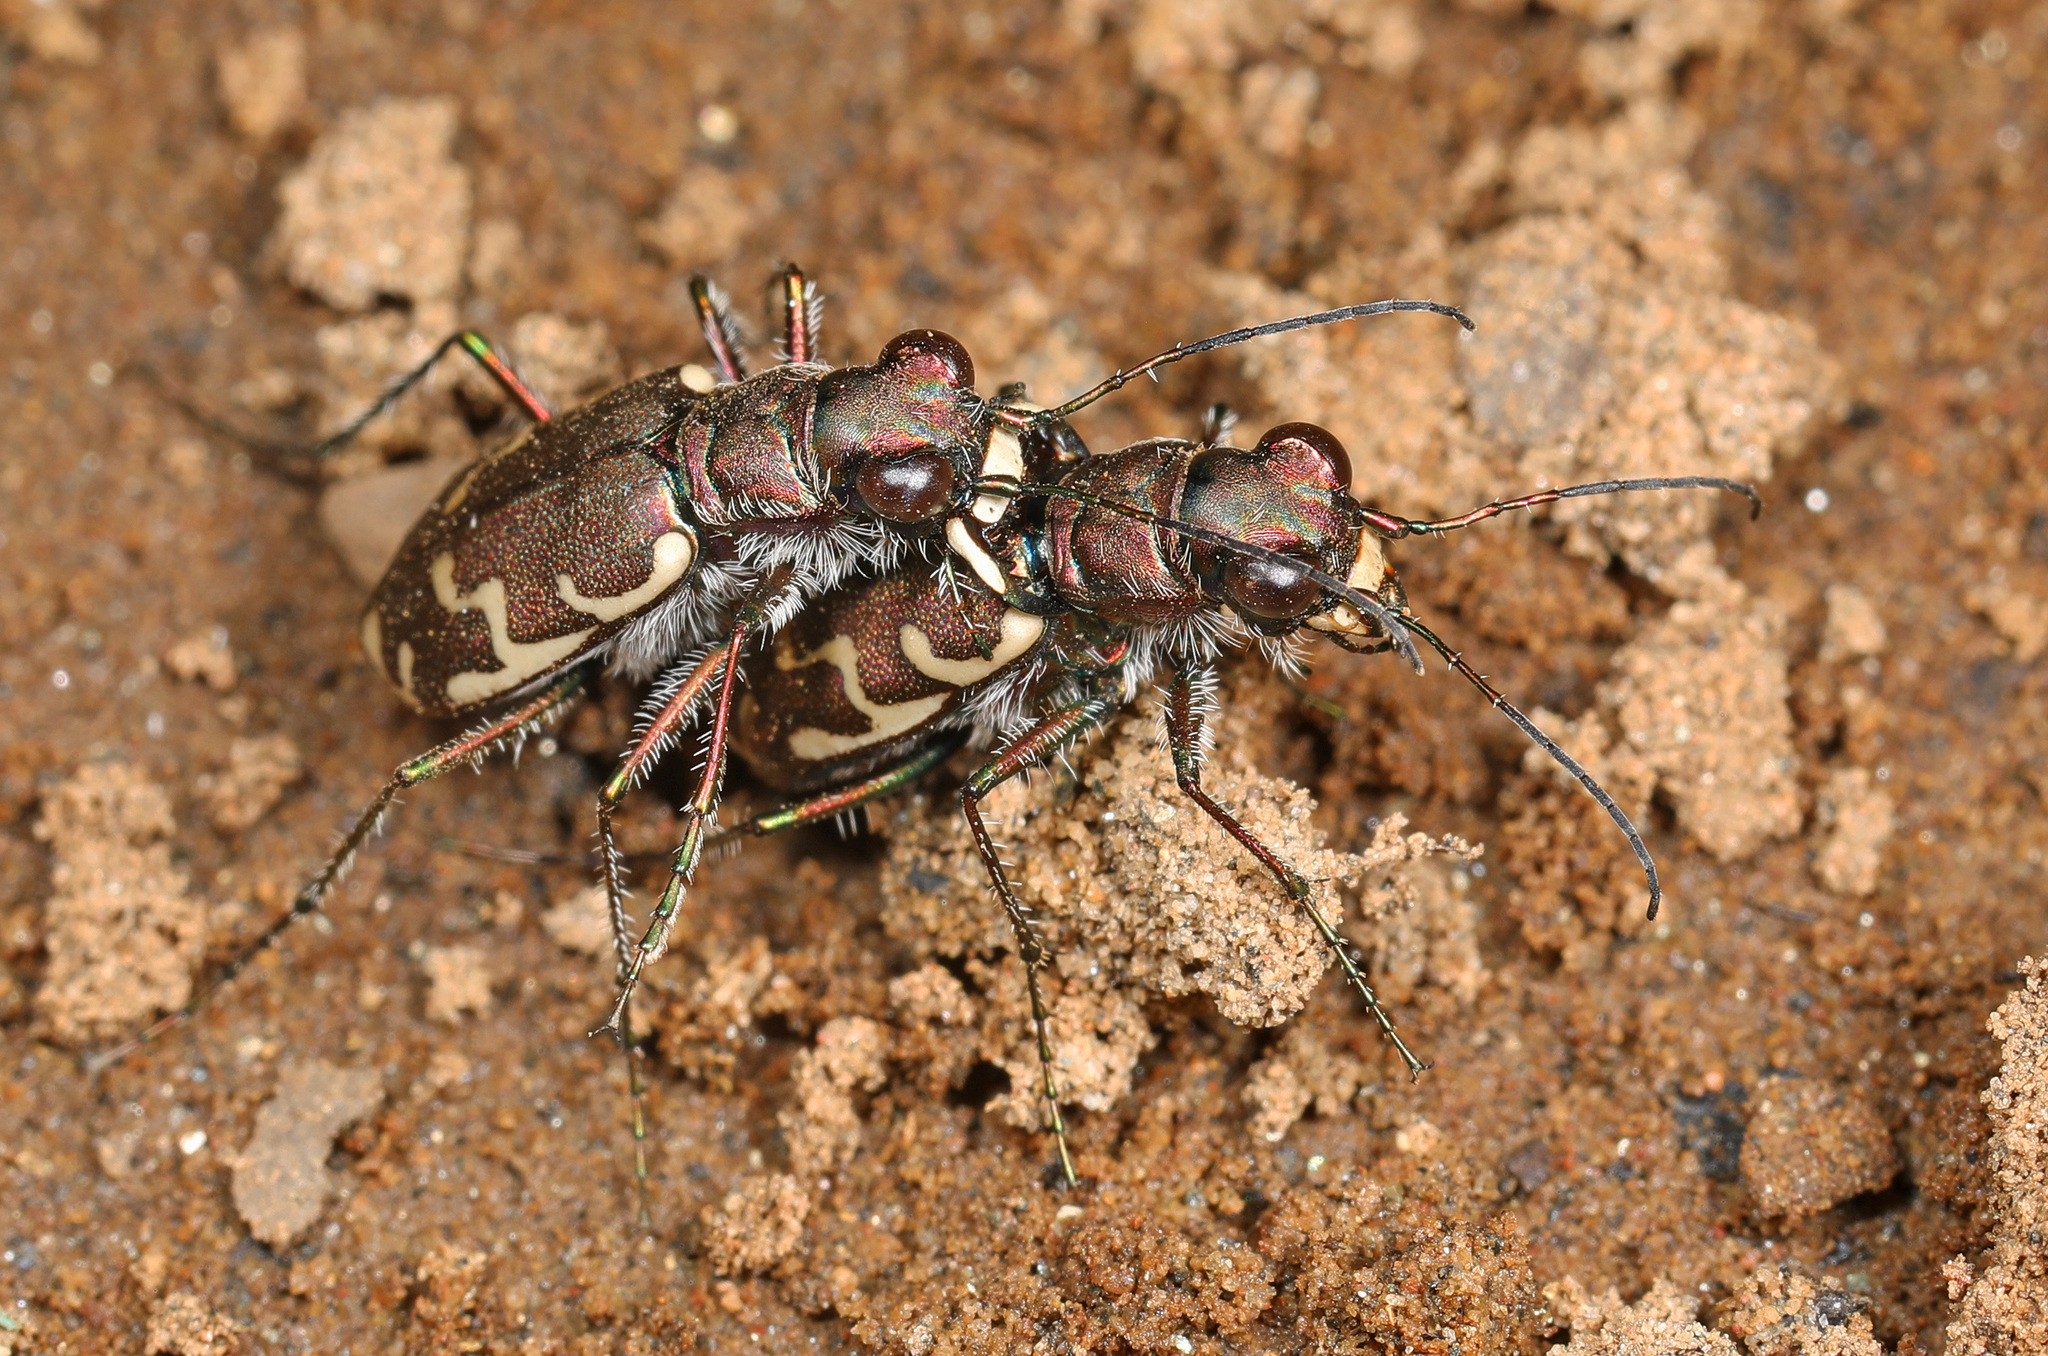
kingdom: Animalia
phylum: Arthropoda
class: Insecta
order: Coleoptera
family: Carabidae
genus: Cicindela
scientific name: Cicindela repanda
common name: Bronzed tiger beetle
